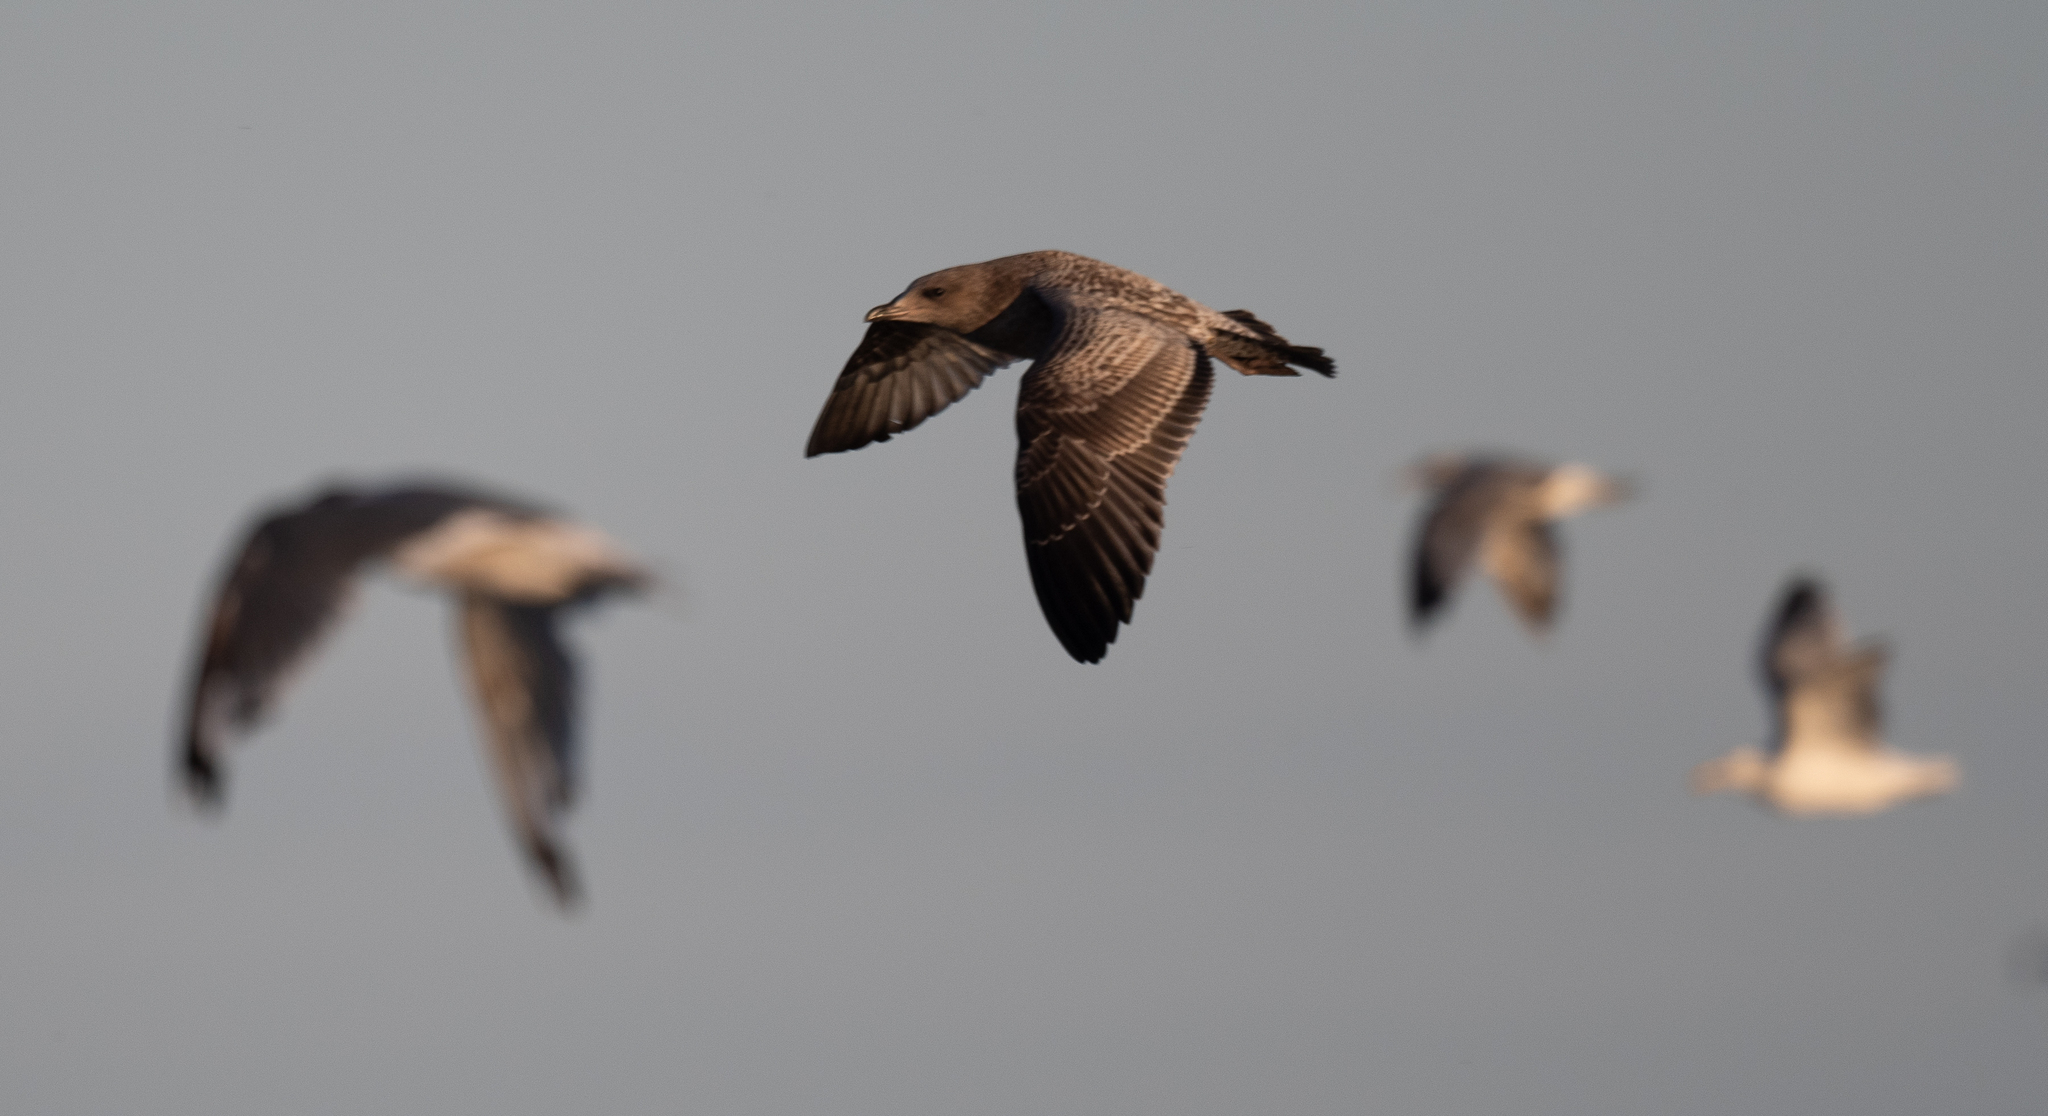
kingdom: Animalia
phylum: Chordata
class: Aves
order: Charadriiformes
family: Laridae
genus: Larus
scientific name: Larus californicus
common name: California gull
